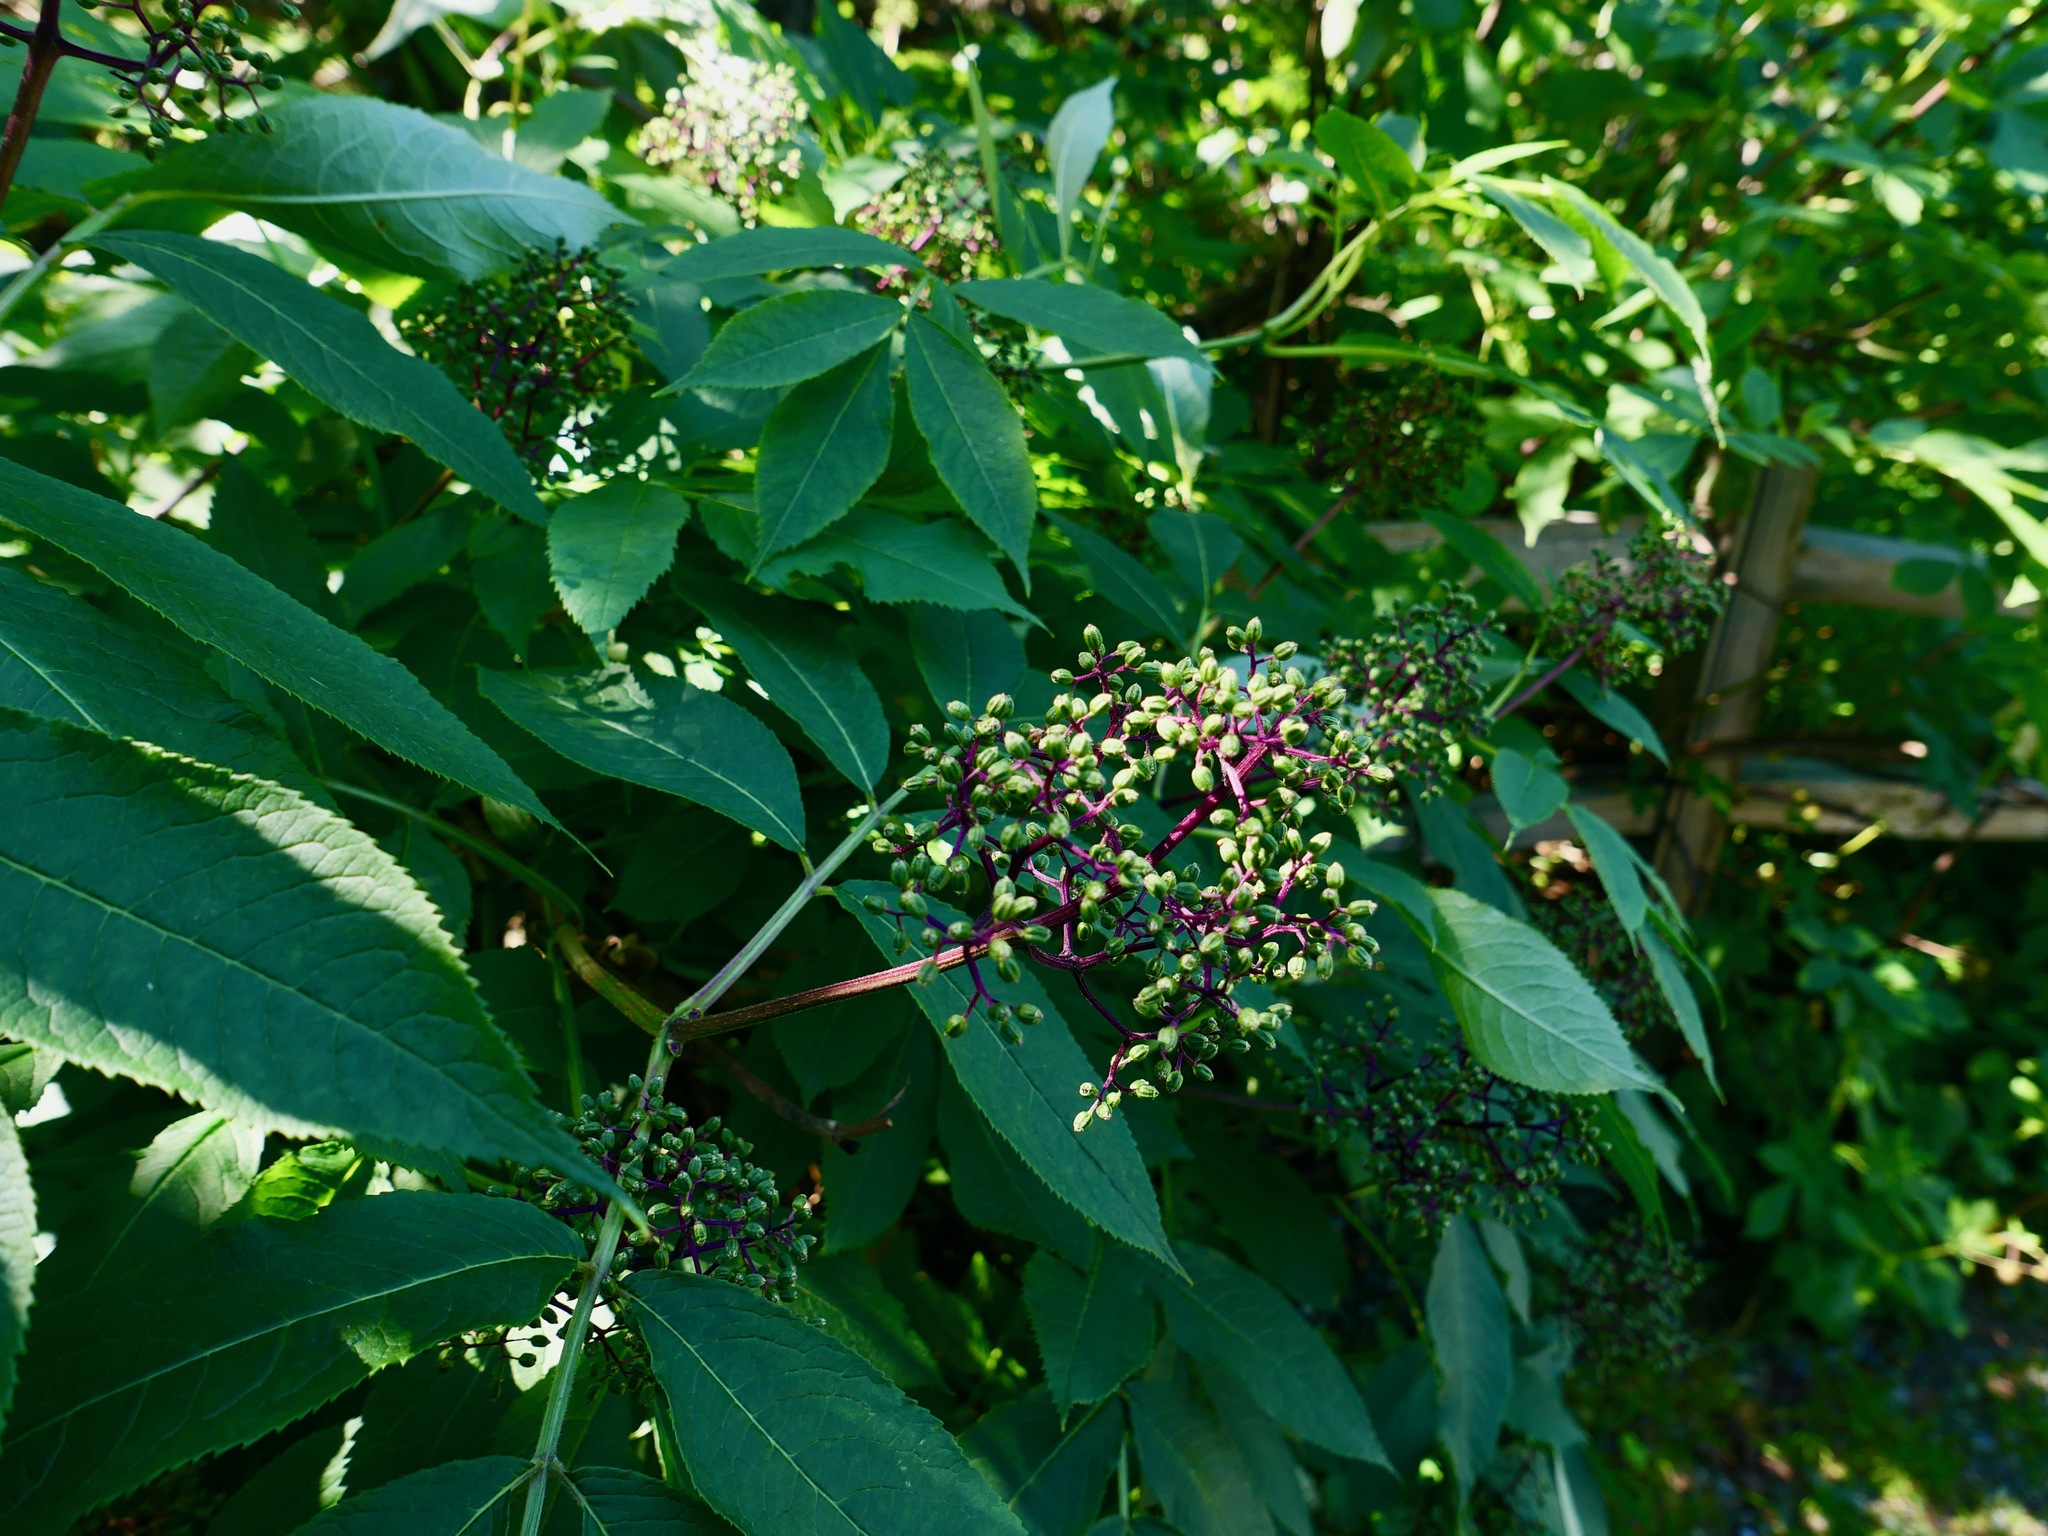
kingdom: Plantae
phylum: Tracheophyta
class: Magnoliopsida
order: Dipsacales
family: Viburnaceae
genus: Sambucus
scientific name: Sambucus racemosa
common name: Red-berried elder
